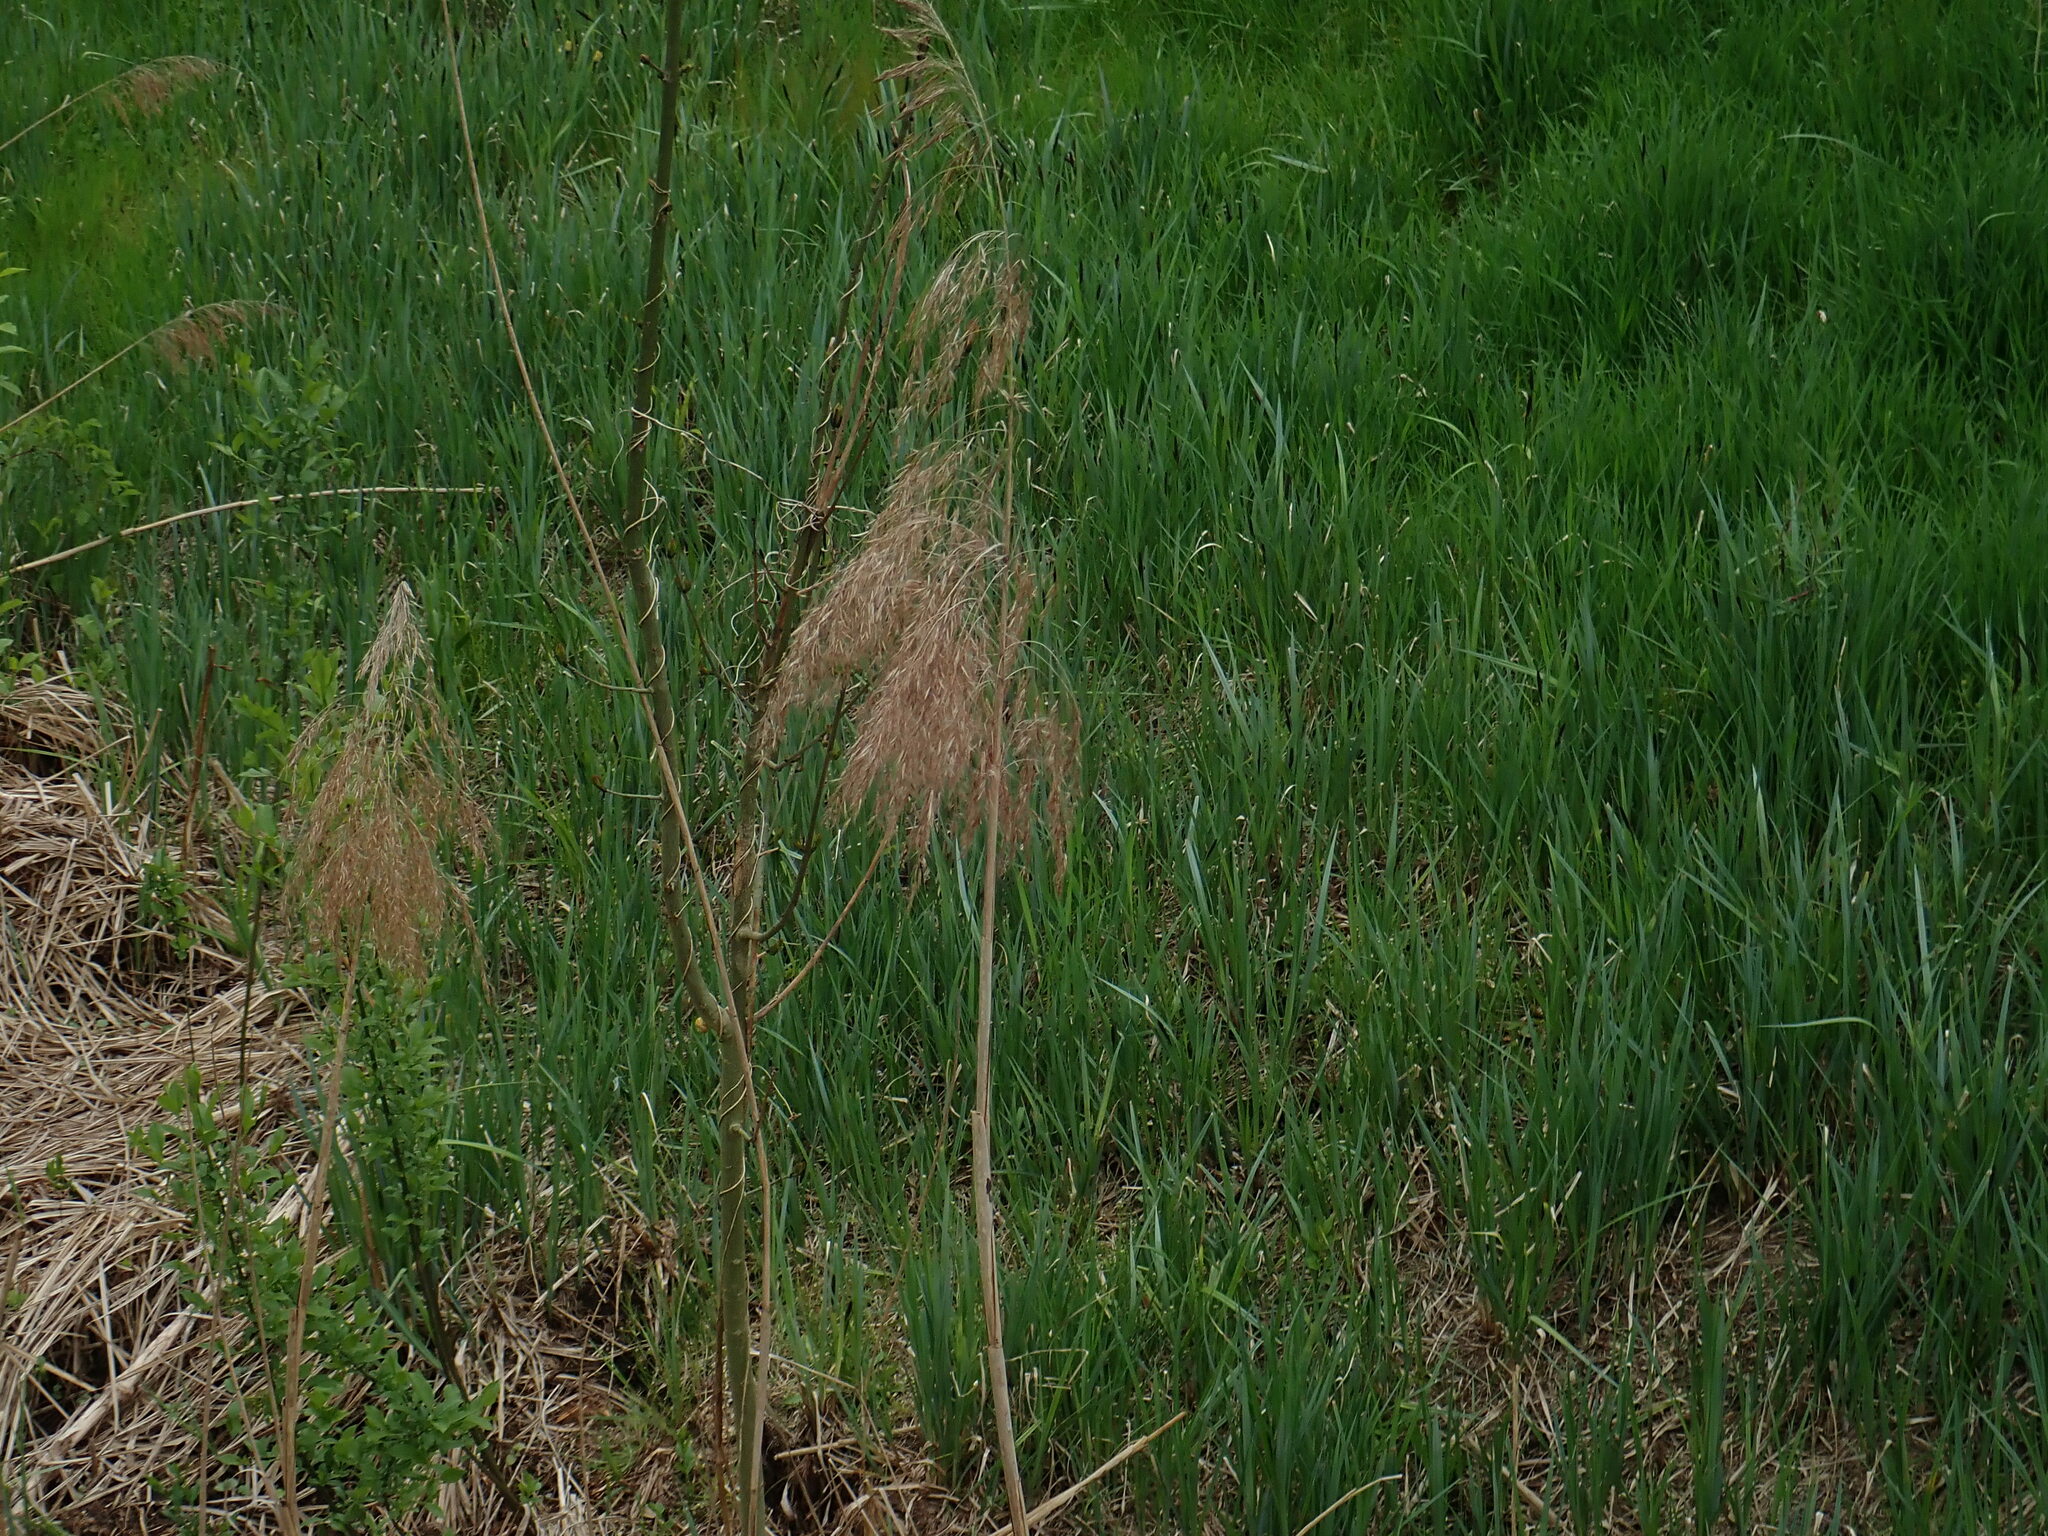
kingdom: Plantae
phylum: Tracheophyta
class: Liliopsida
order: Poales
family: Poaceae
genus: Phragmites
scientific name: Phragmites australis
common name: Common reed
